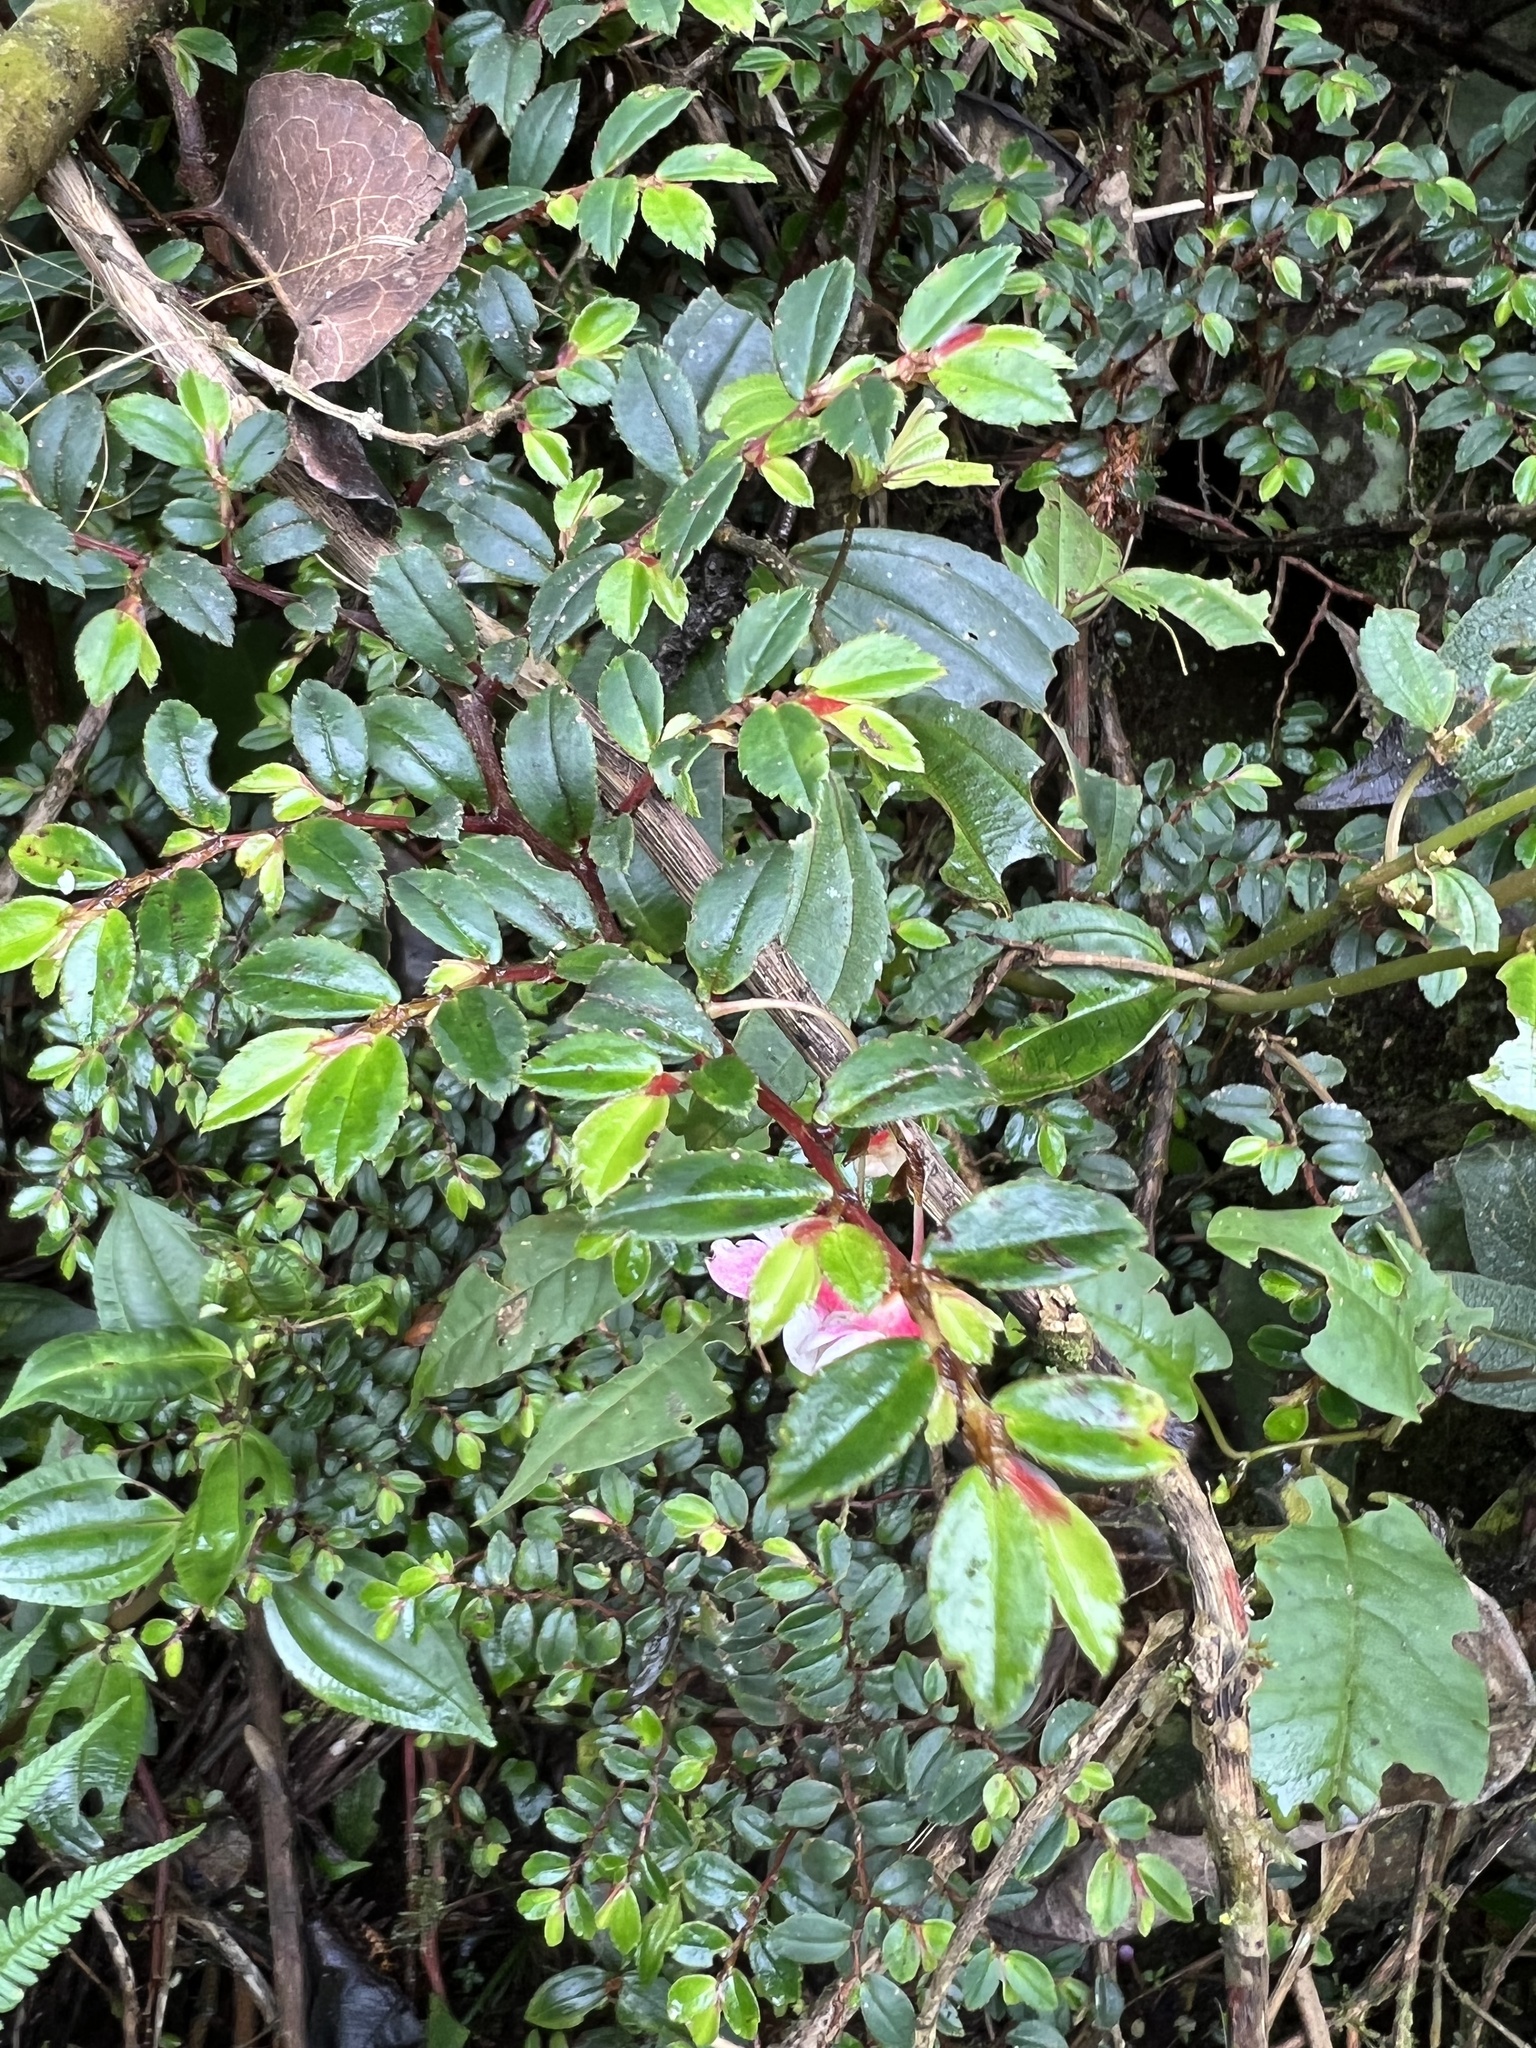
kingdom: Plantae
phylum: Tracheophyta
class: Magnoliopsida
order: Cucurbitales
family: Begoniaceae
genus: Begonia
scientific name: Begonia foliosa
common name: Fern begonia
